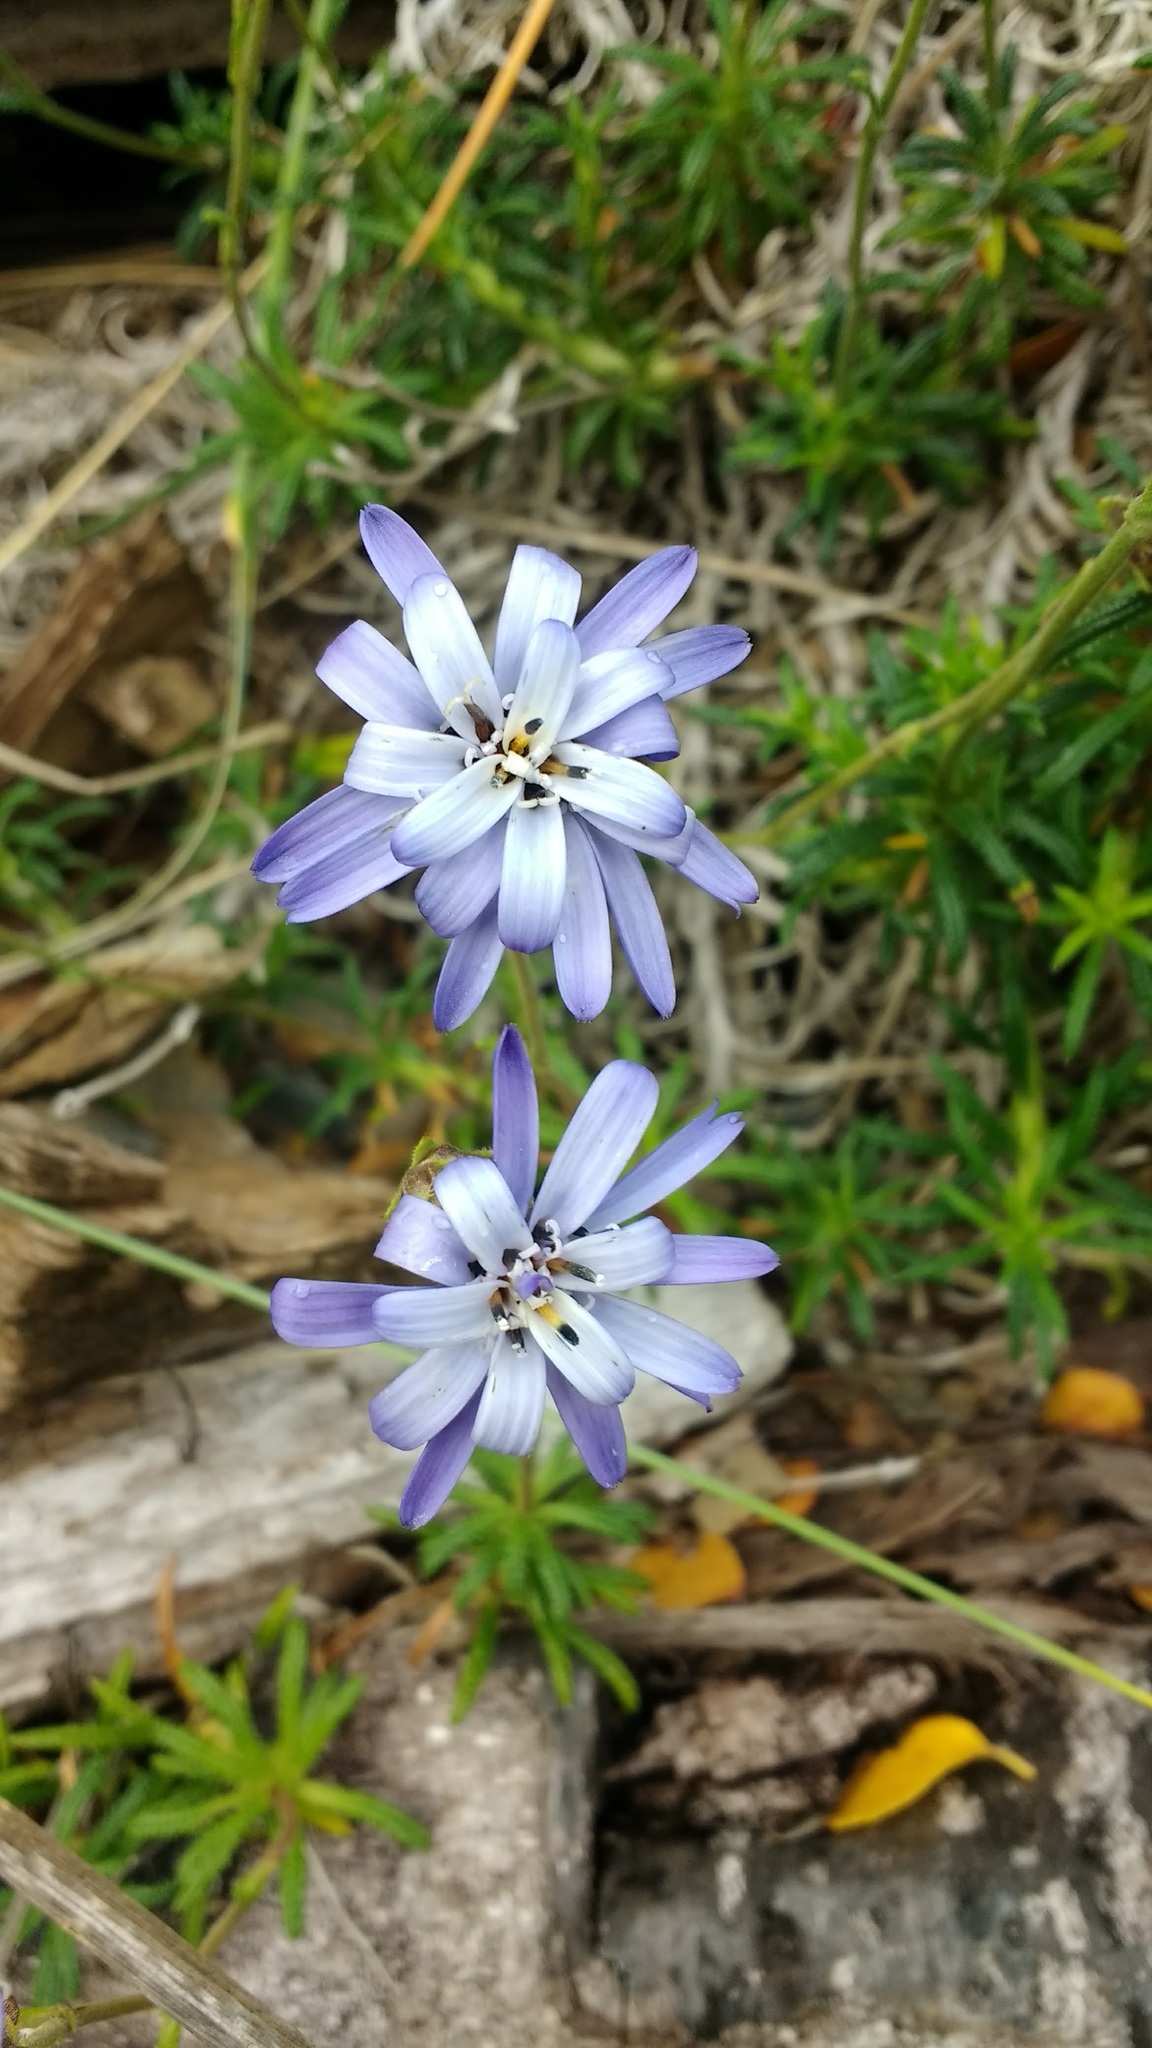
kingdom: Plantae
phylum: Tracheophyta
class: Magnoliopsida
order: Asterales
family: Asteraceae
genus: Perezia
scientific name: Perezia recurvata
